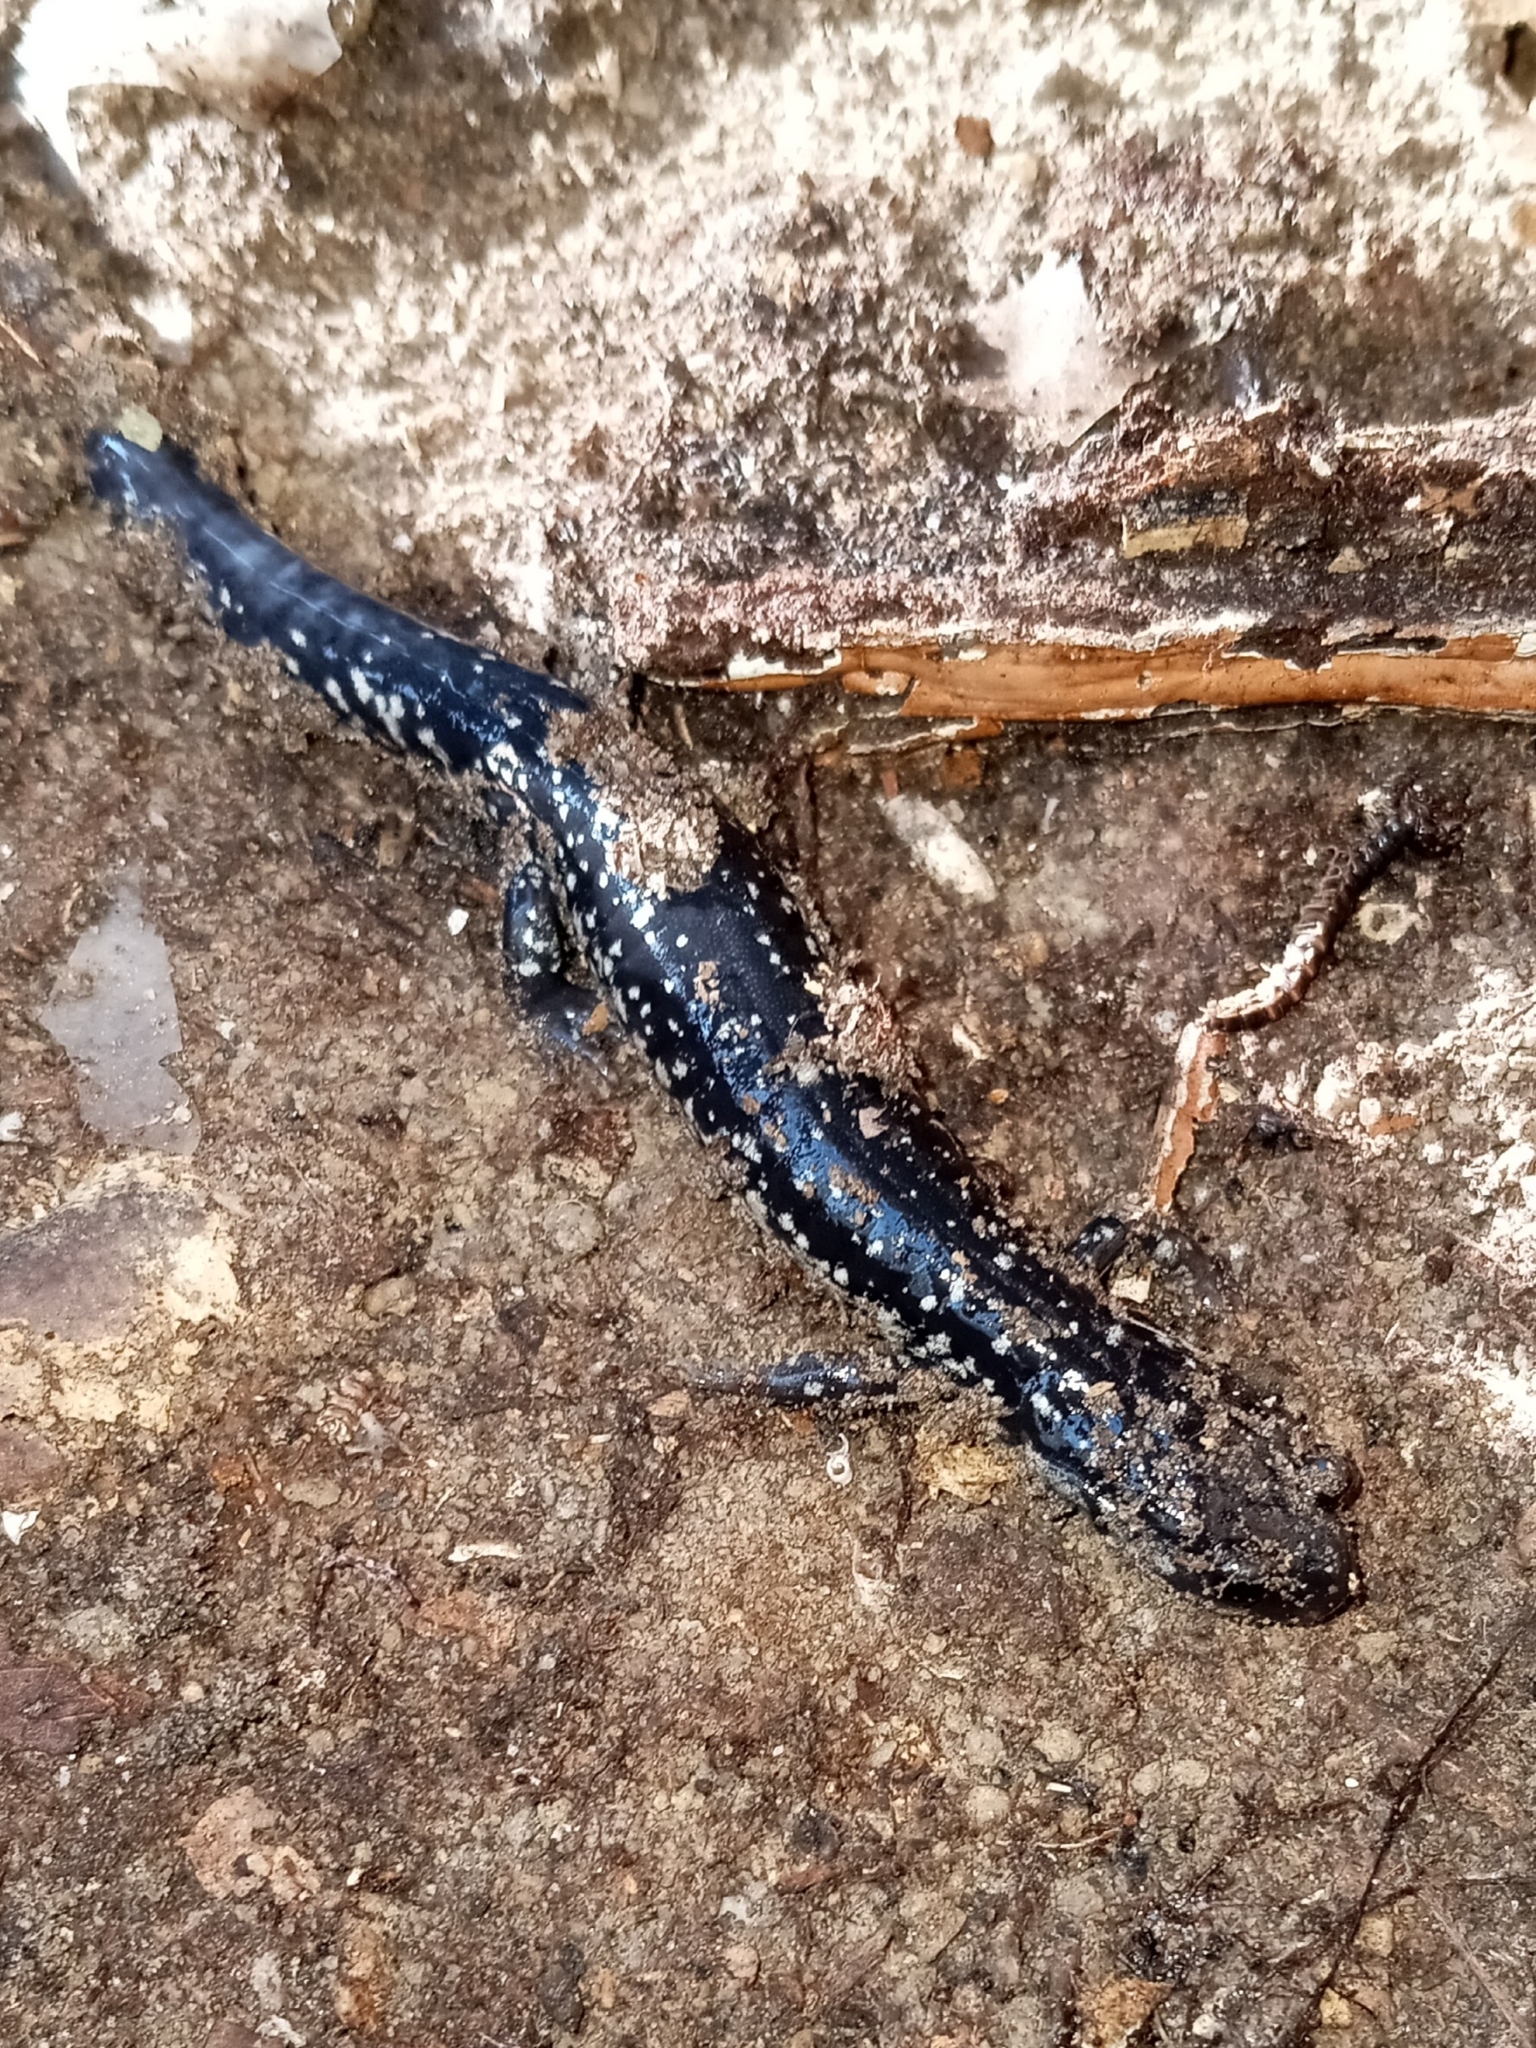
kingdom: Animalia
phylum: Chordata
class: Amphibia
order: Caudata
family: Plethodontidae
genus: Plethodon
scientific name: Plethodon chlorobryonis
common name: Atlantic coast slimy salamander
